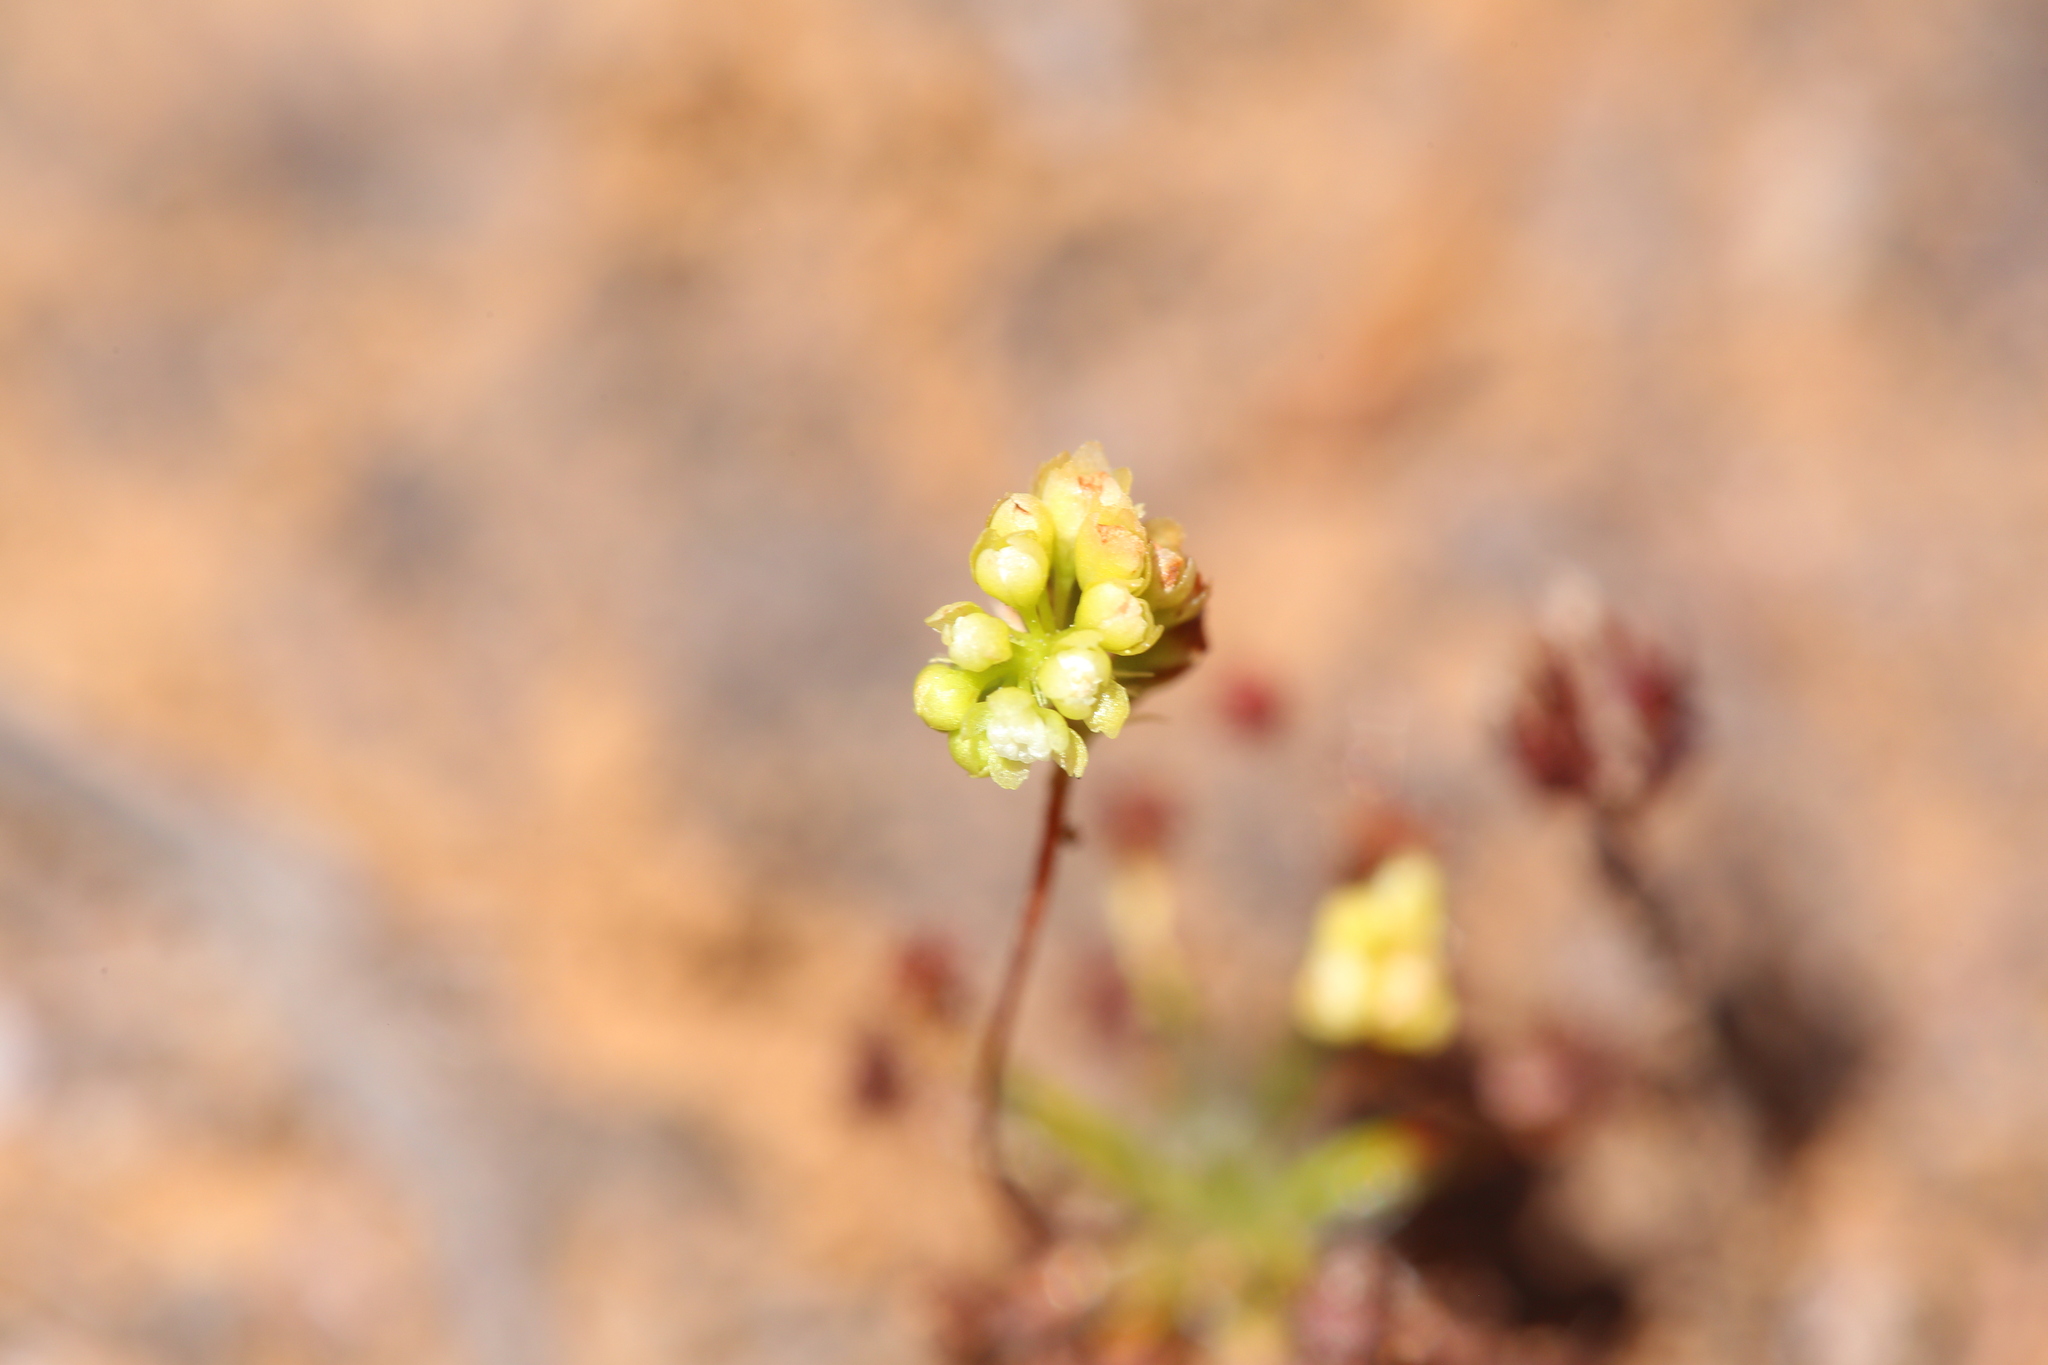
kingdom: Plantae
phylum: Tracheophyta
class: Magnoliopsida
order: Caryophyllales
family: Droseraceae
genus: Drosera
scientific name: Drosera paleacea
